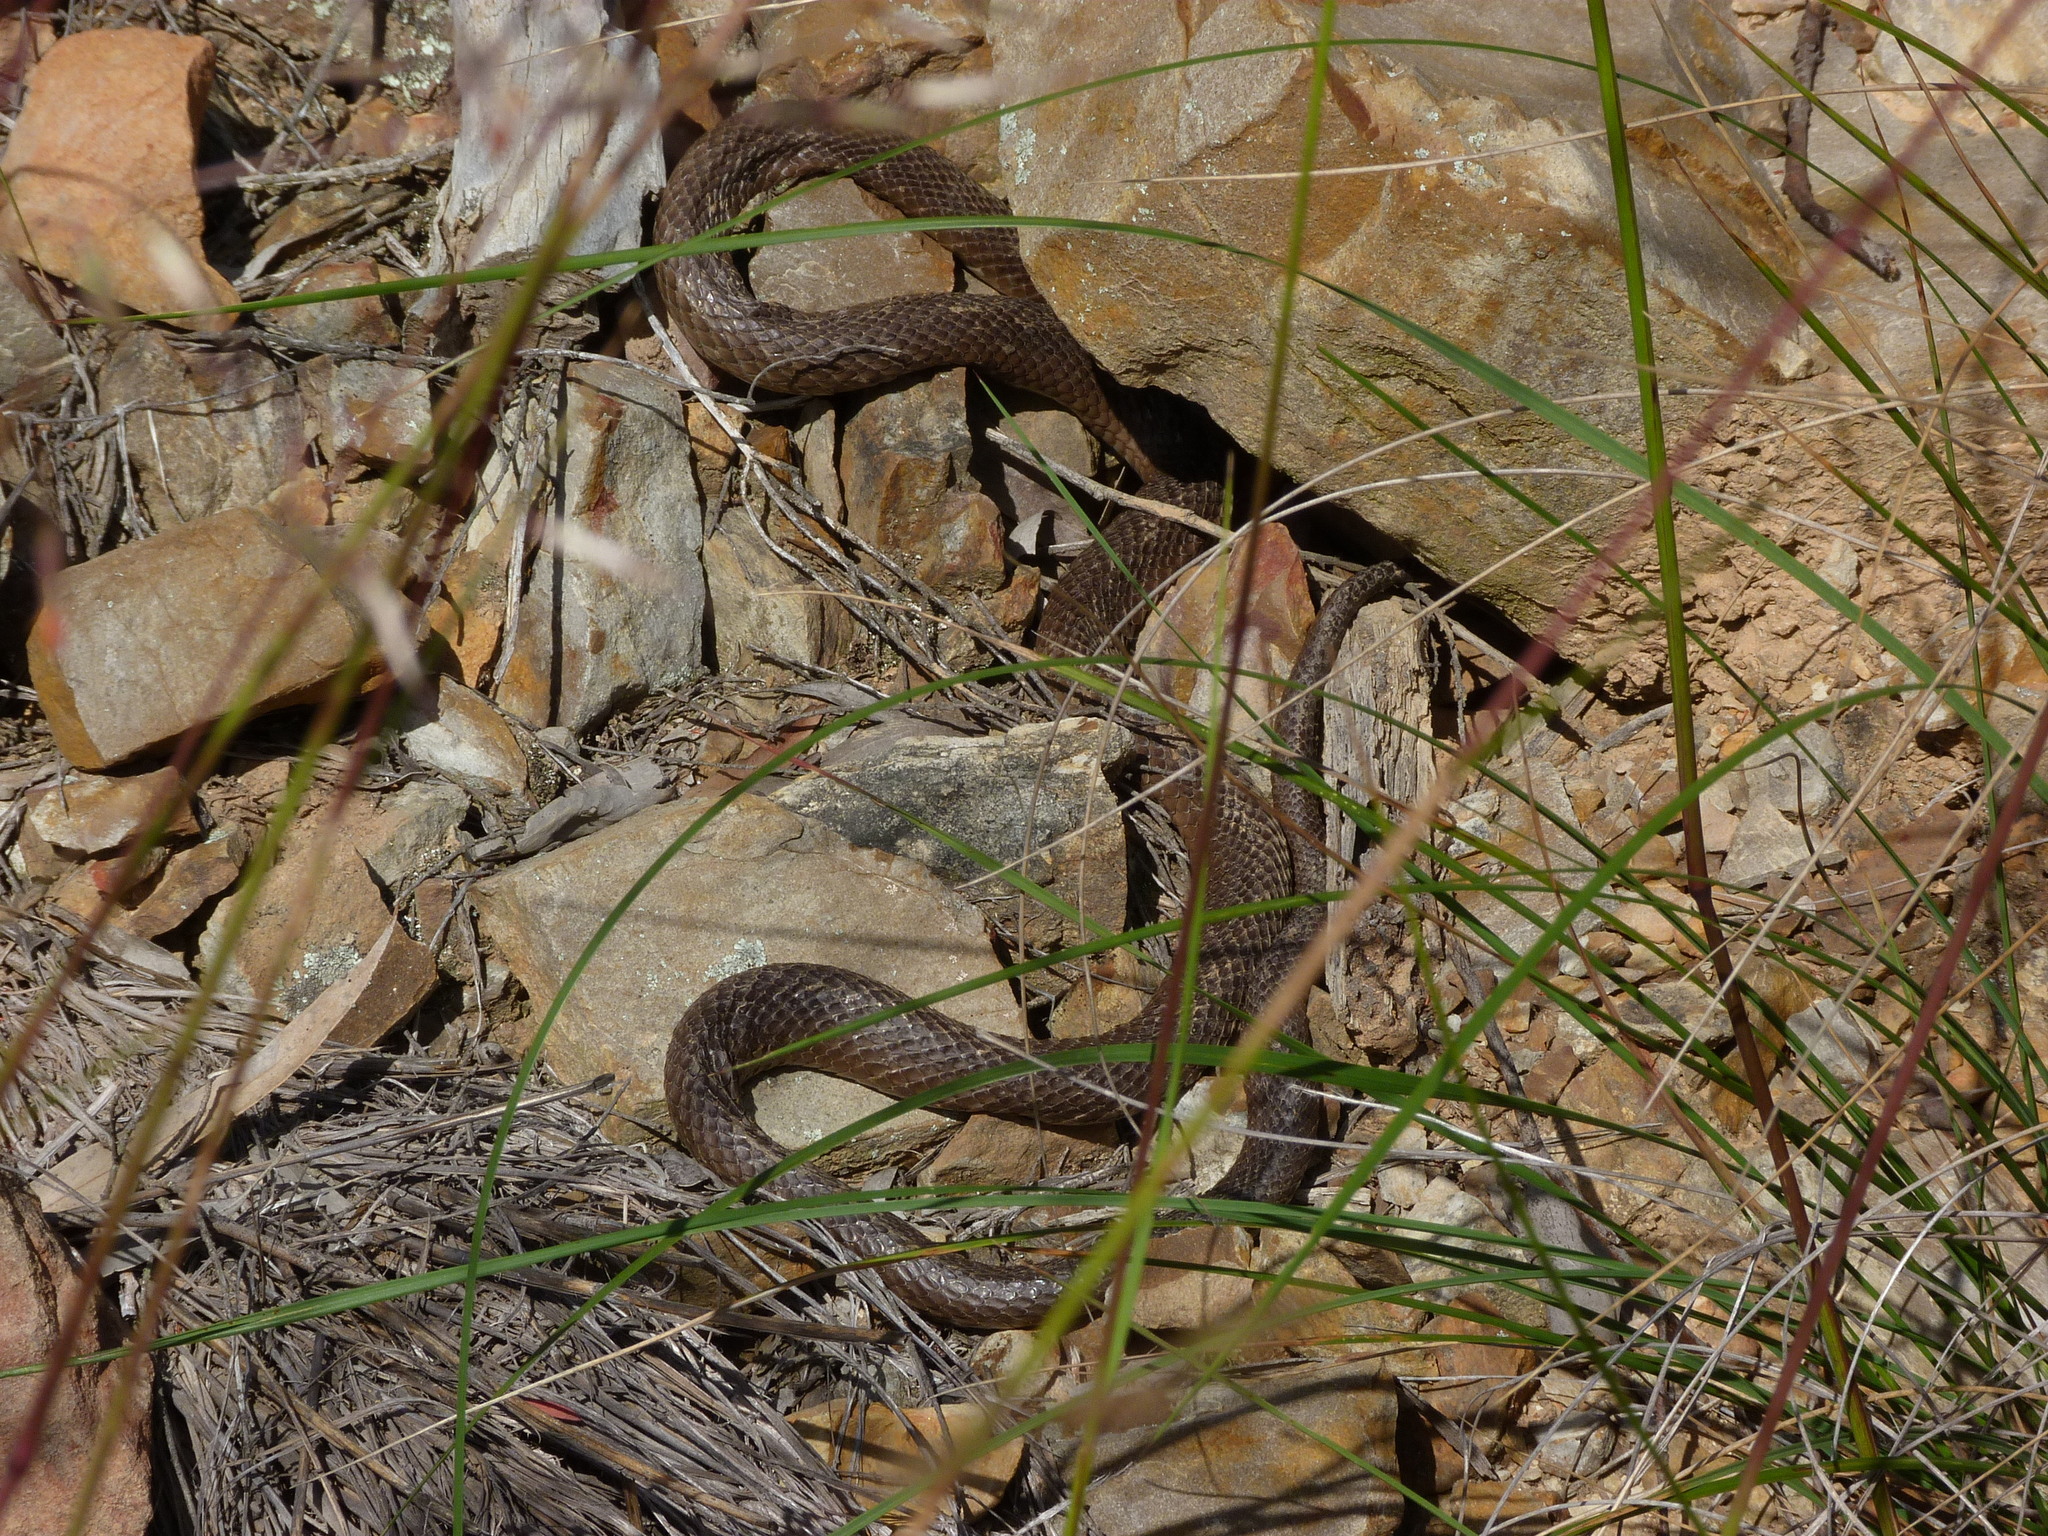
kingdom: Animalia
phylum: Chordata
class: Squamata
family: Elapidae
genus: Pseudonaja
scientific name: Pseudonaja textilis
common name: Eastern brown snake
